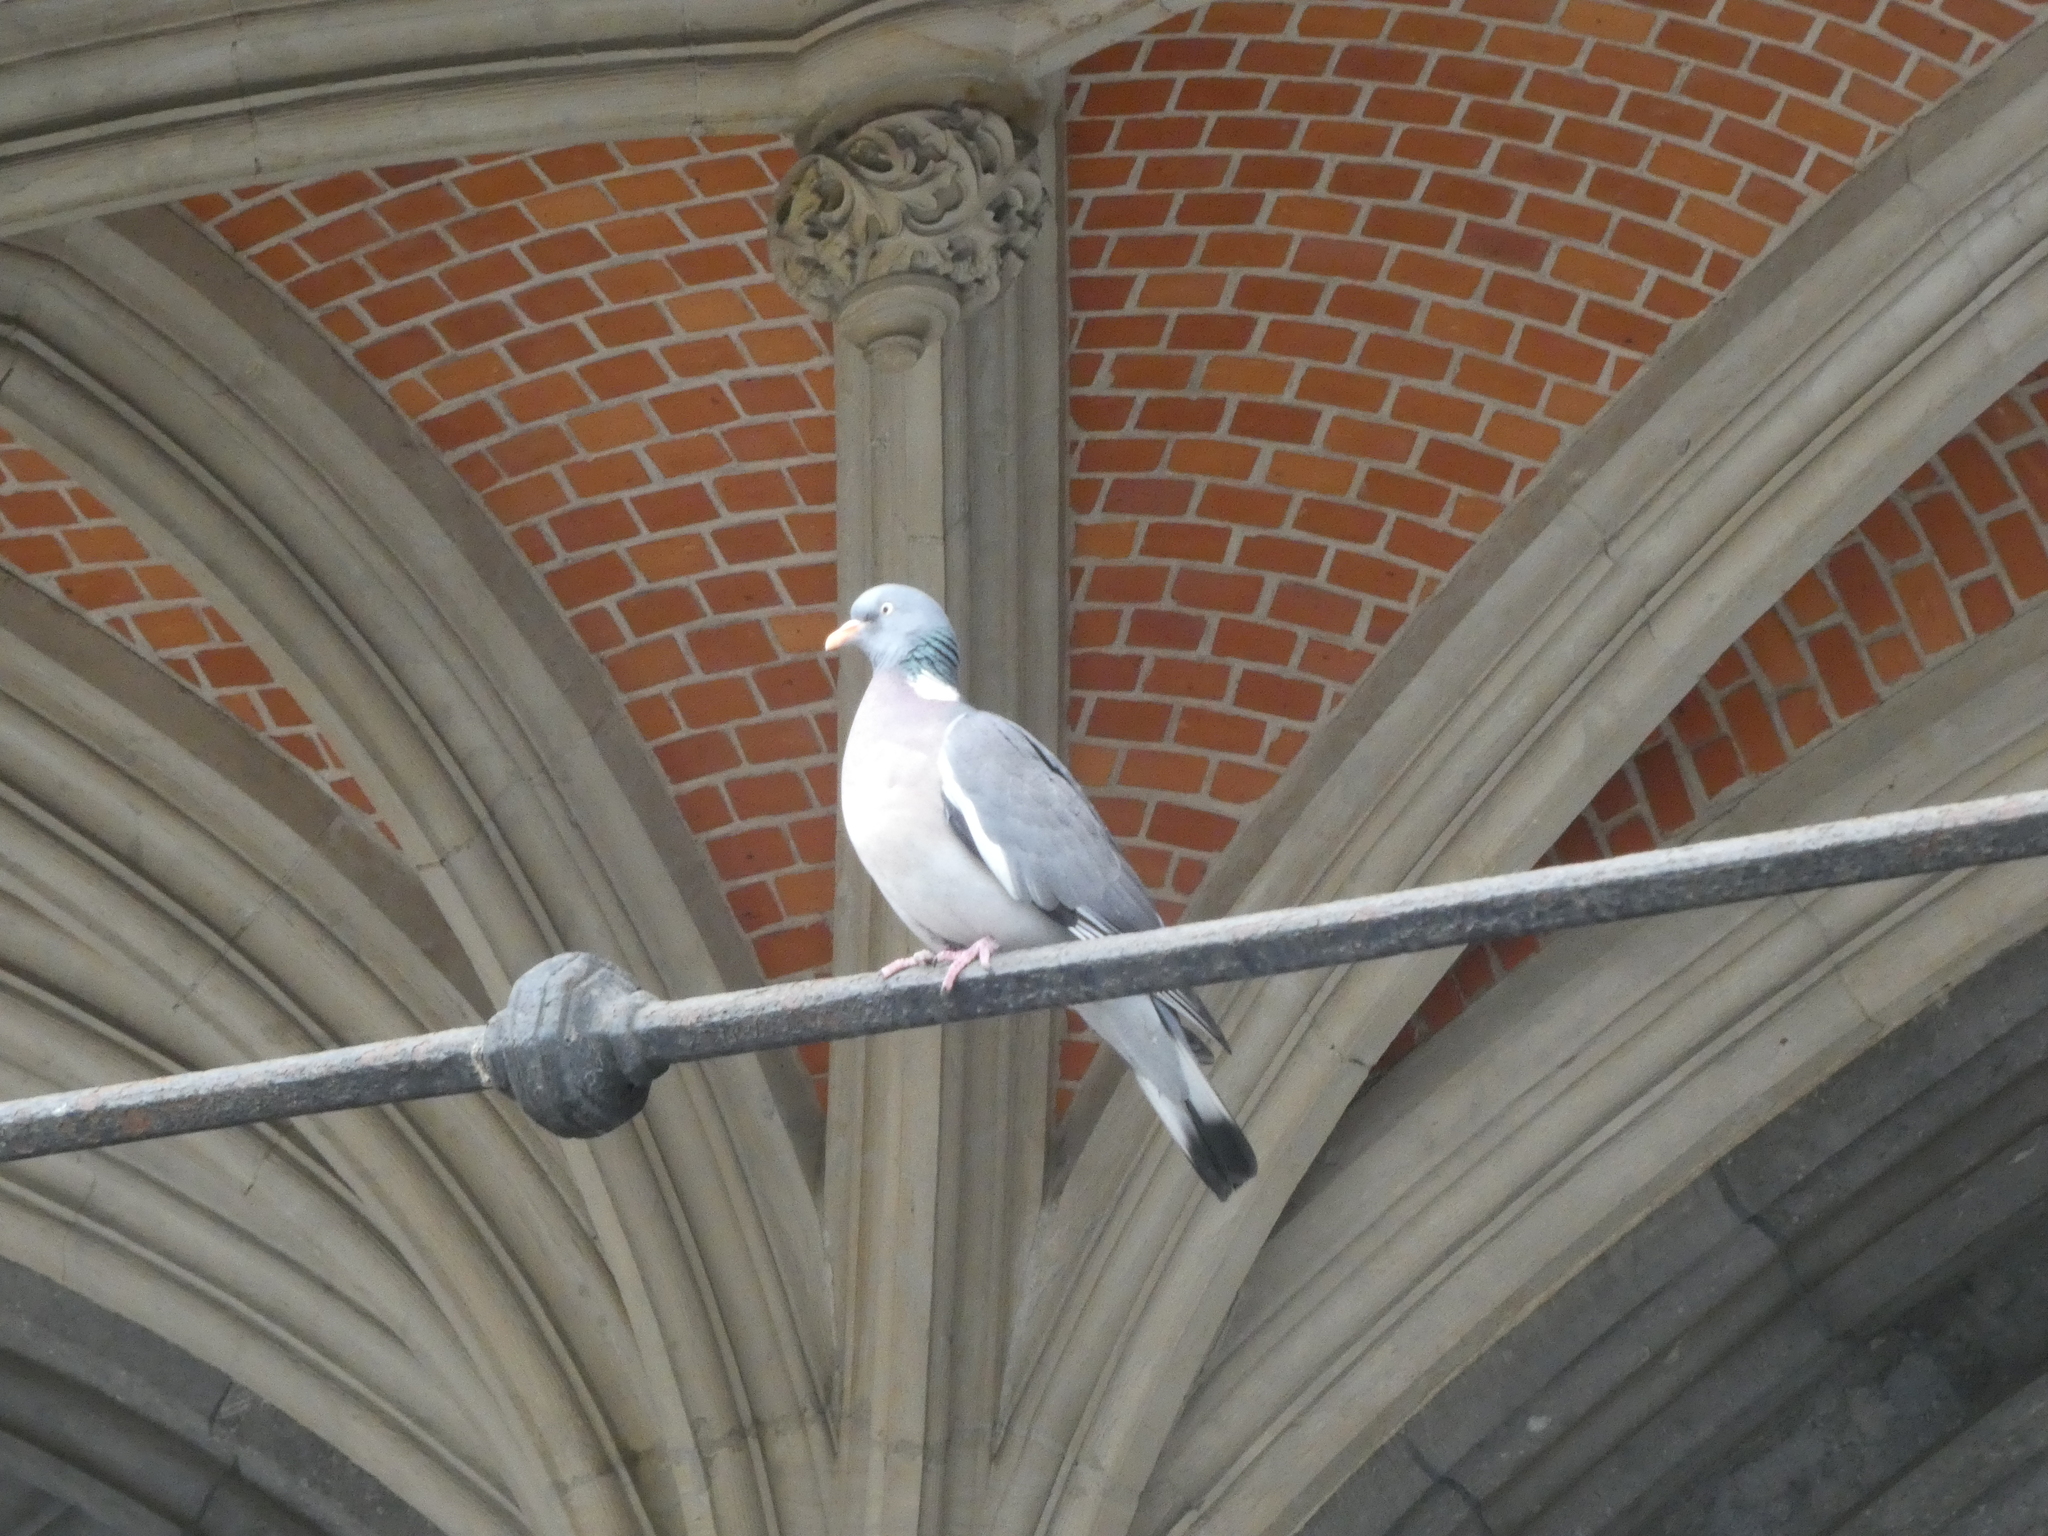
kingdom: Animalia
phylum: Chordata
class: Aves
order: Columbiformes
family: Columbidae
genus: Columba
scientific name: Columba palumbus
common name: Common wood pigeon
